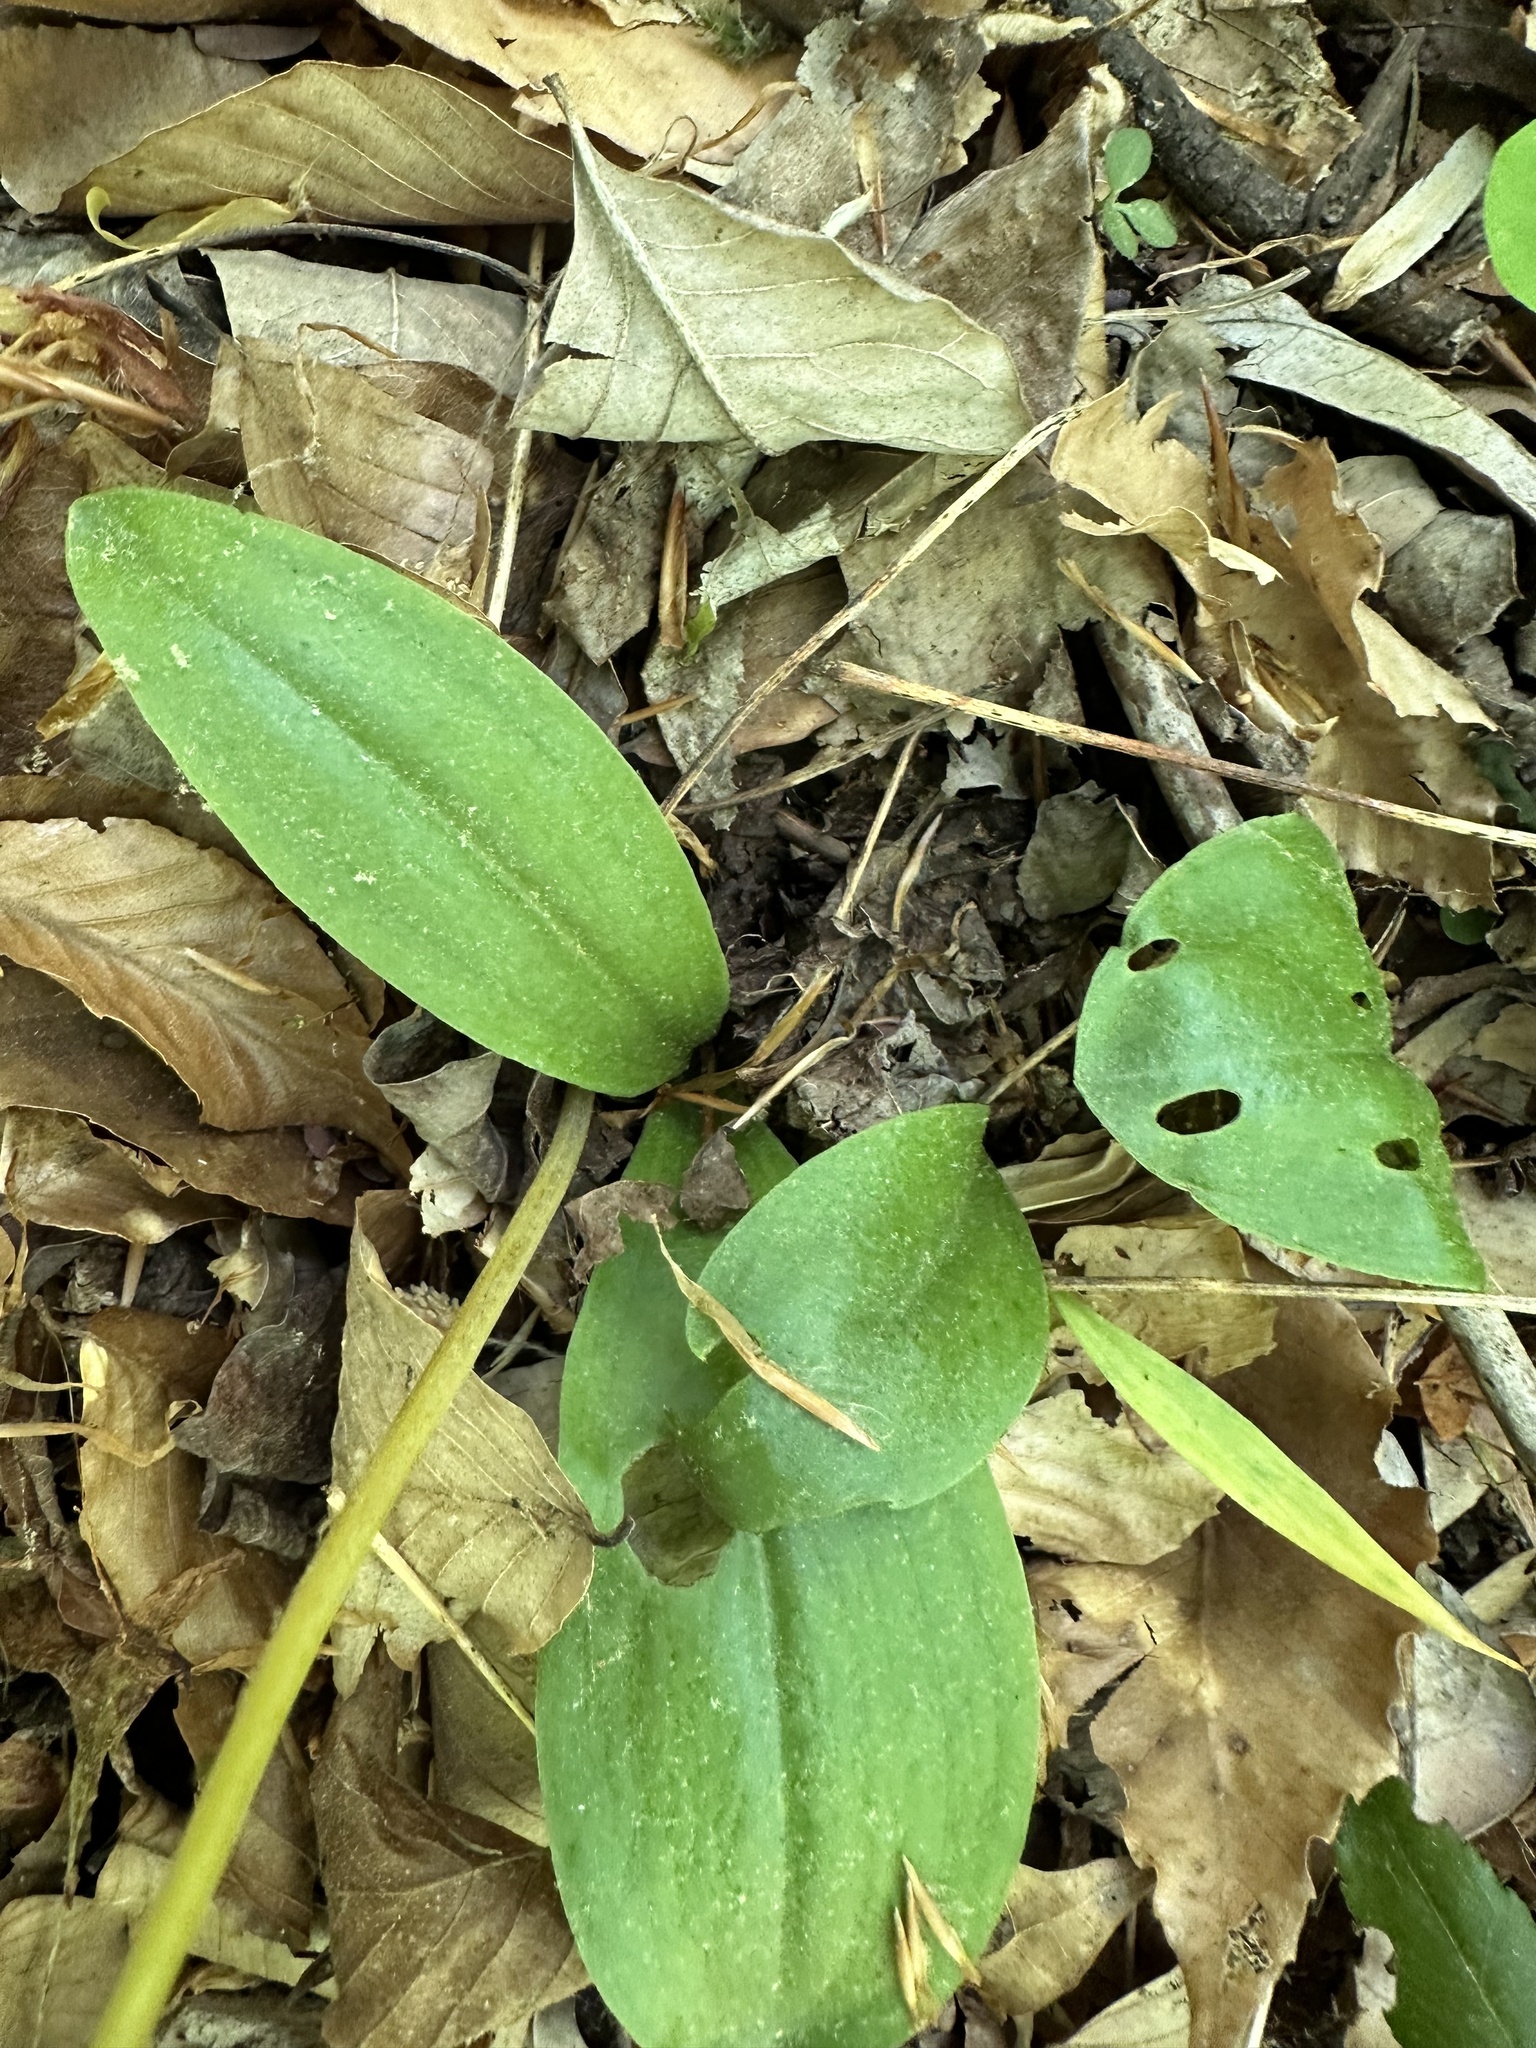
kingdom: Plantae
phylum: Tracheophyta
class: Liliopsida
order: Asparagales
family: Orchidaceae
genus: Galearis
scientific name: Galearis spectabilis
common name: Purple-hooded orchis
